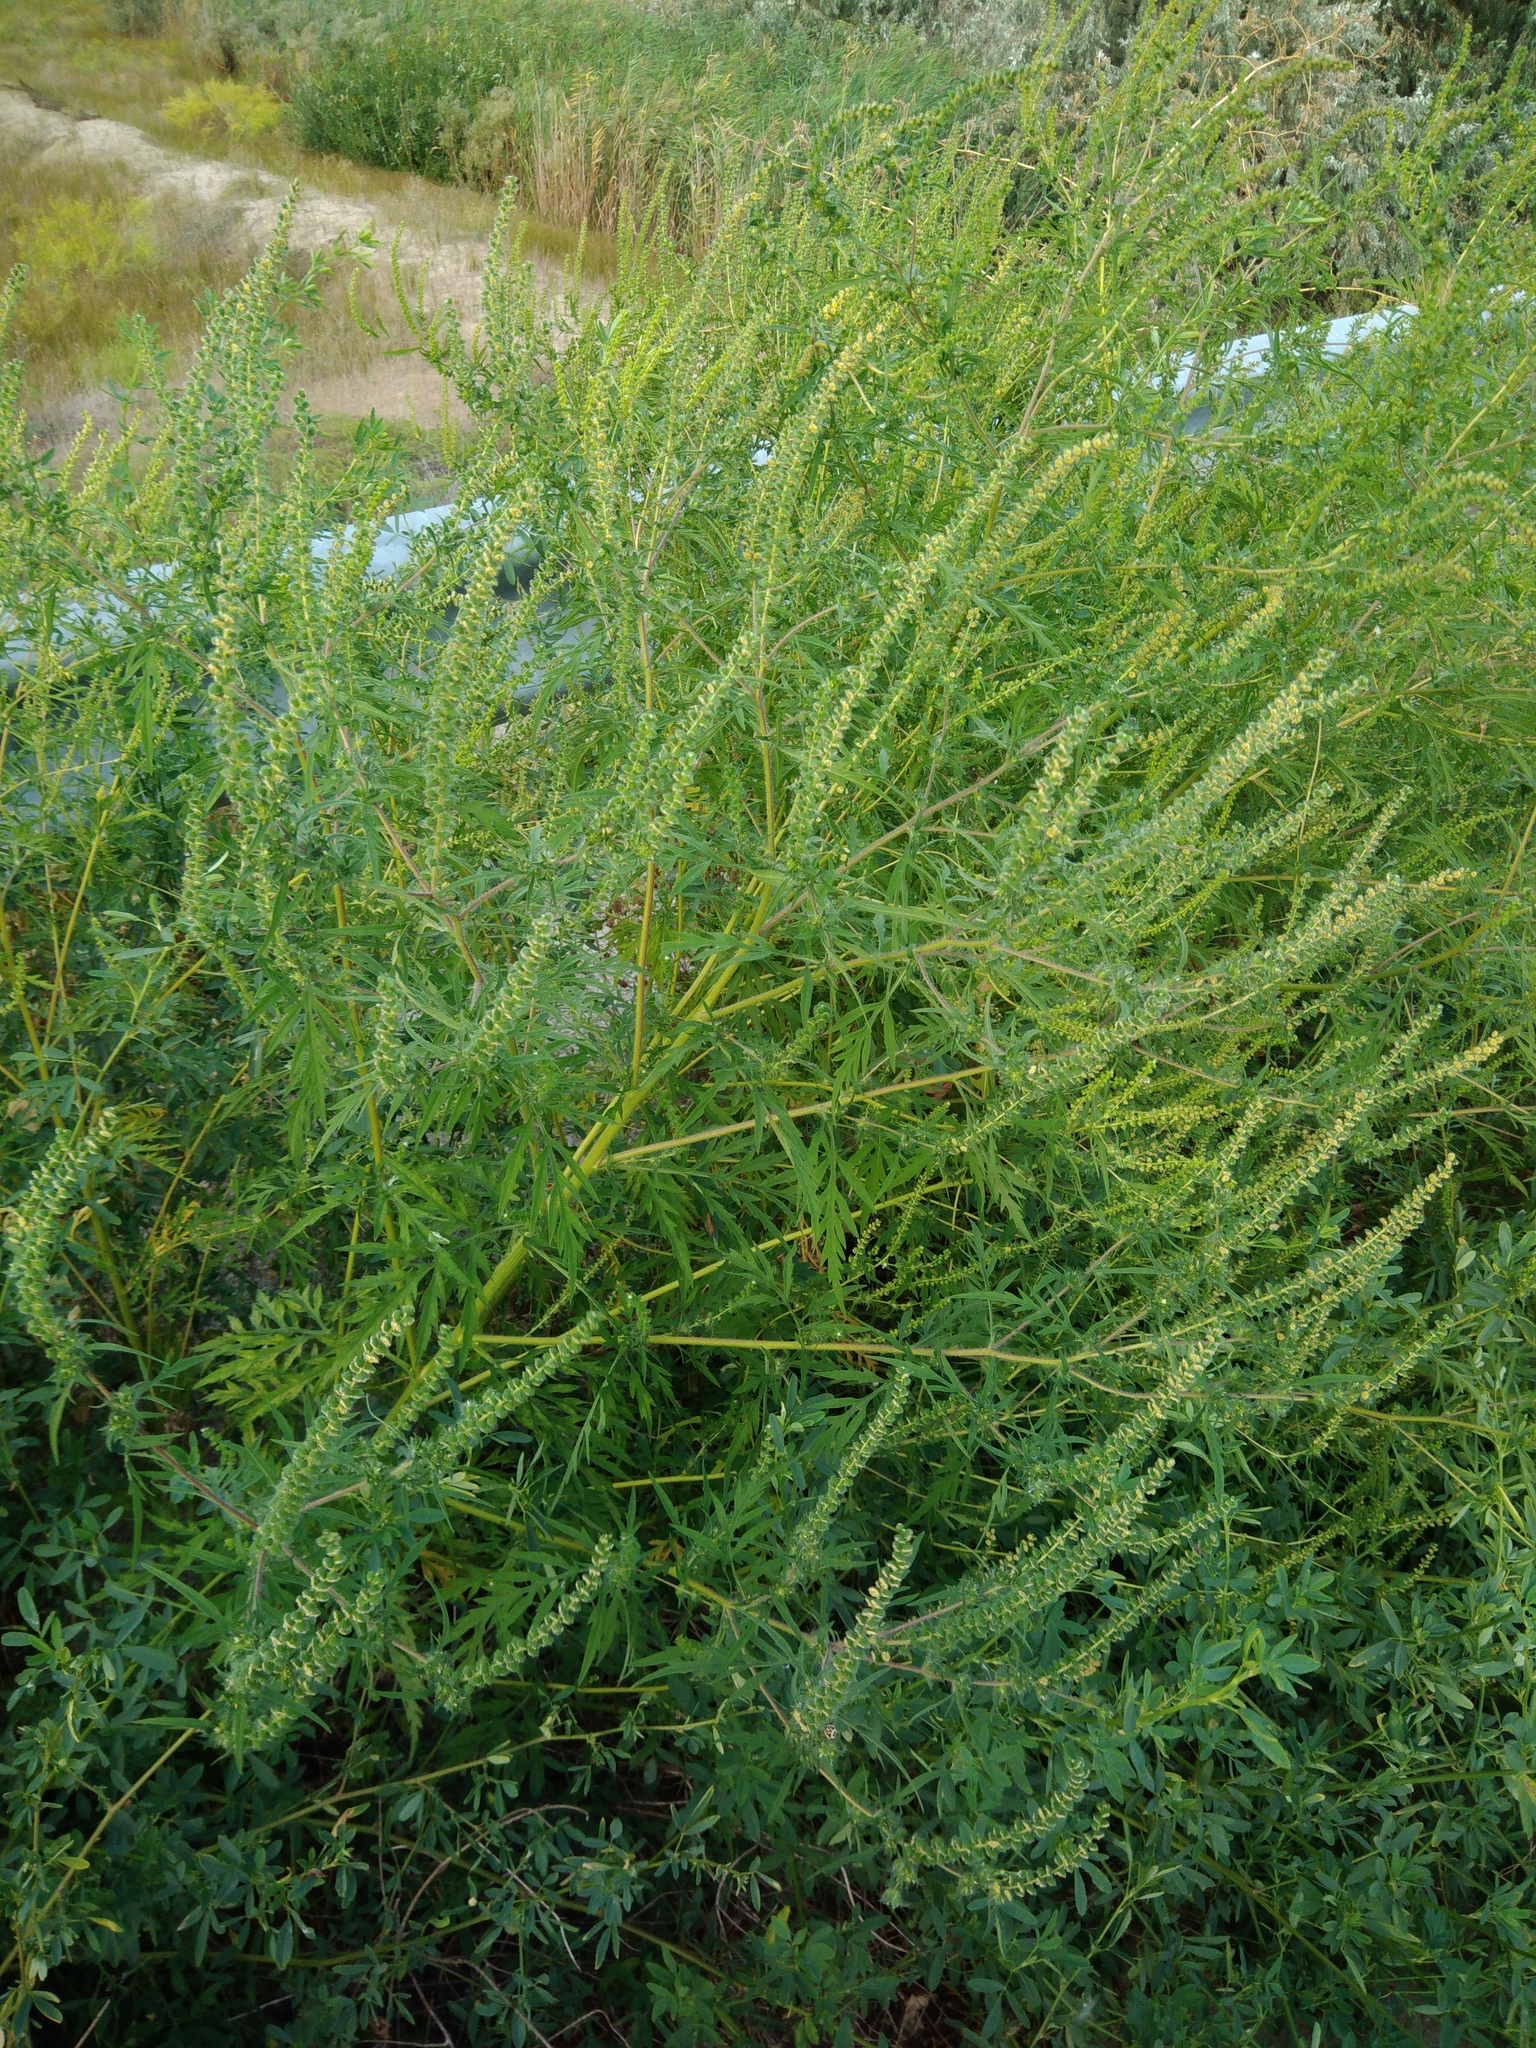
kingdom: Plantae
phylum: Tracheophyta
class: Magnoliopsida
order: Asterales
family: Asteraceae
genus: Ambrosia
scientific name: Ambrosia artemisiifolia
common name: Annual ragweed
